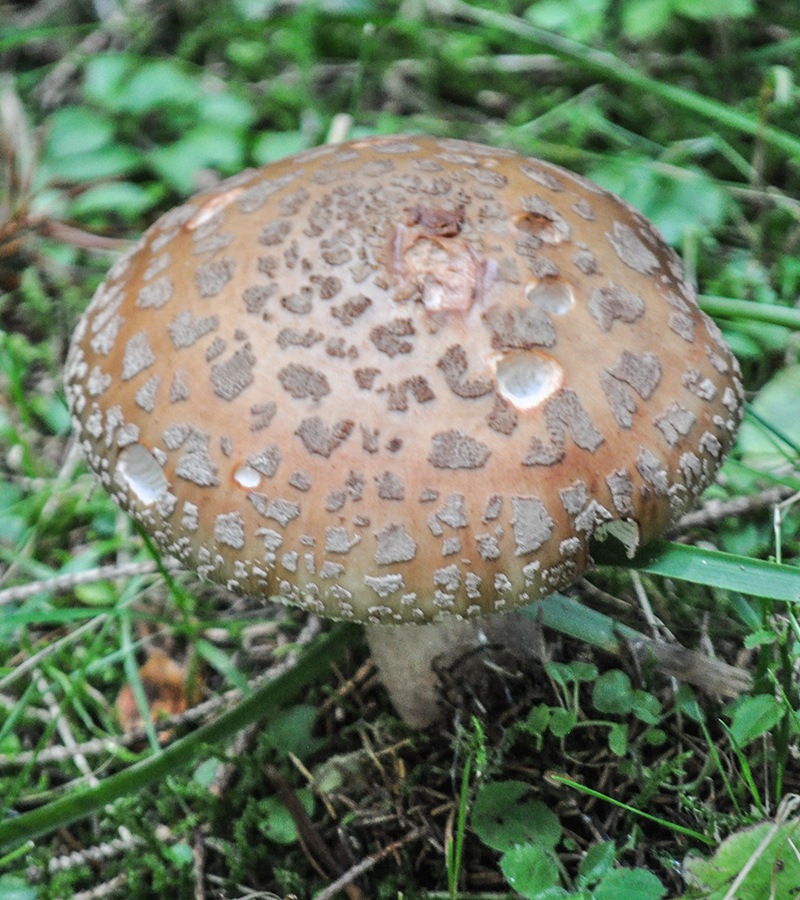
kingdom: Fungi
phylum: Basidiomycota
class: Agaricomycetes
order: Agaricales
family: Amanitaceae
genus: Amanita
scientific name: Amanita rubescens
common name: Blusher
